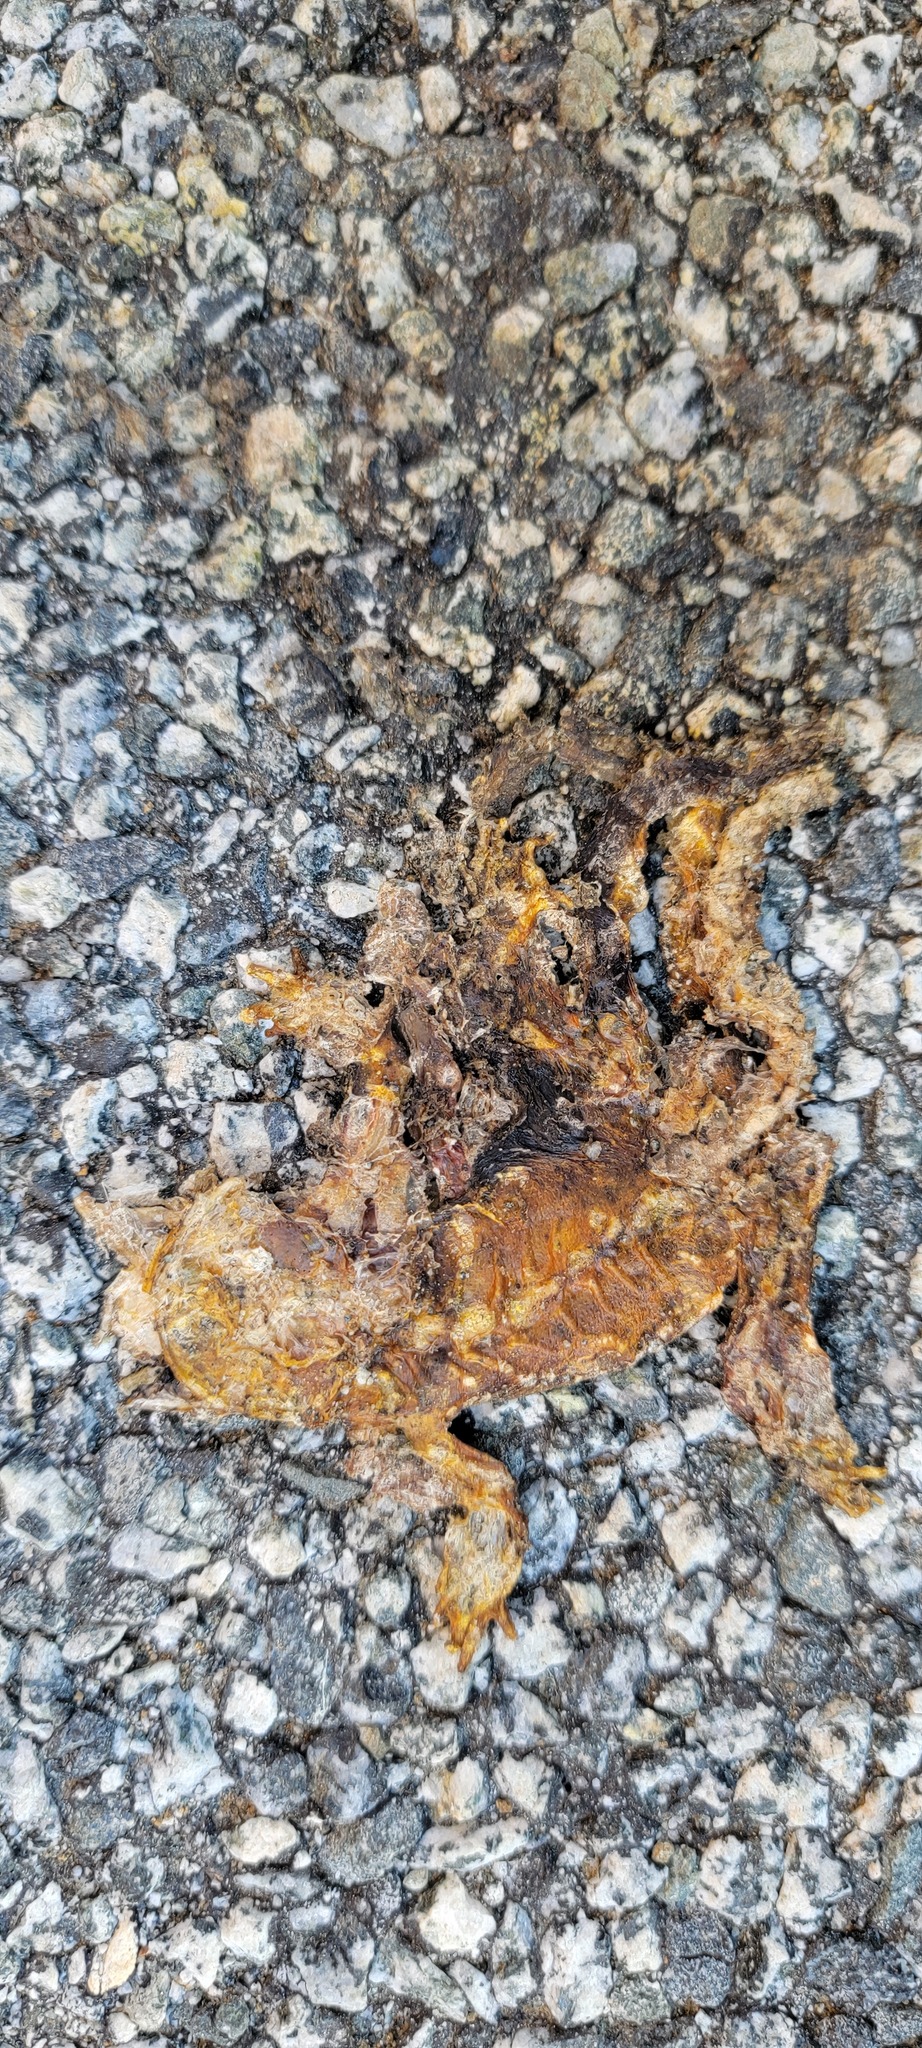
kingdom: Animalia
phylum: Chordata
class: Amphibia
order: Caudata
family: Salamandridae
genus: Taricha
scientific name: Taricha
